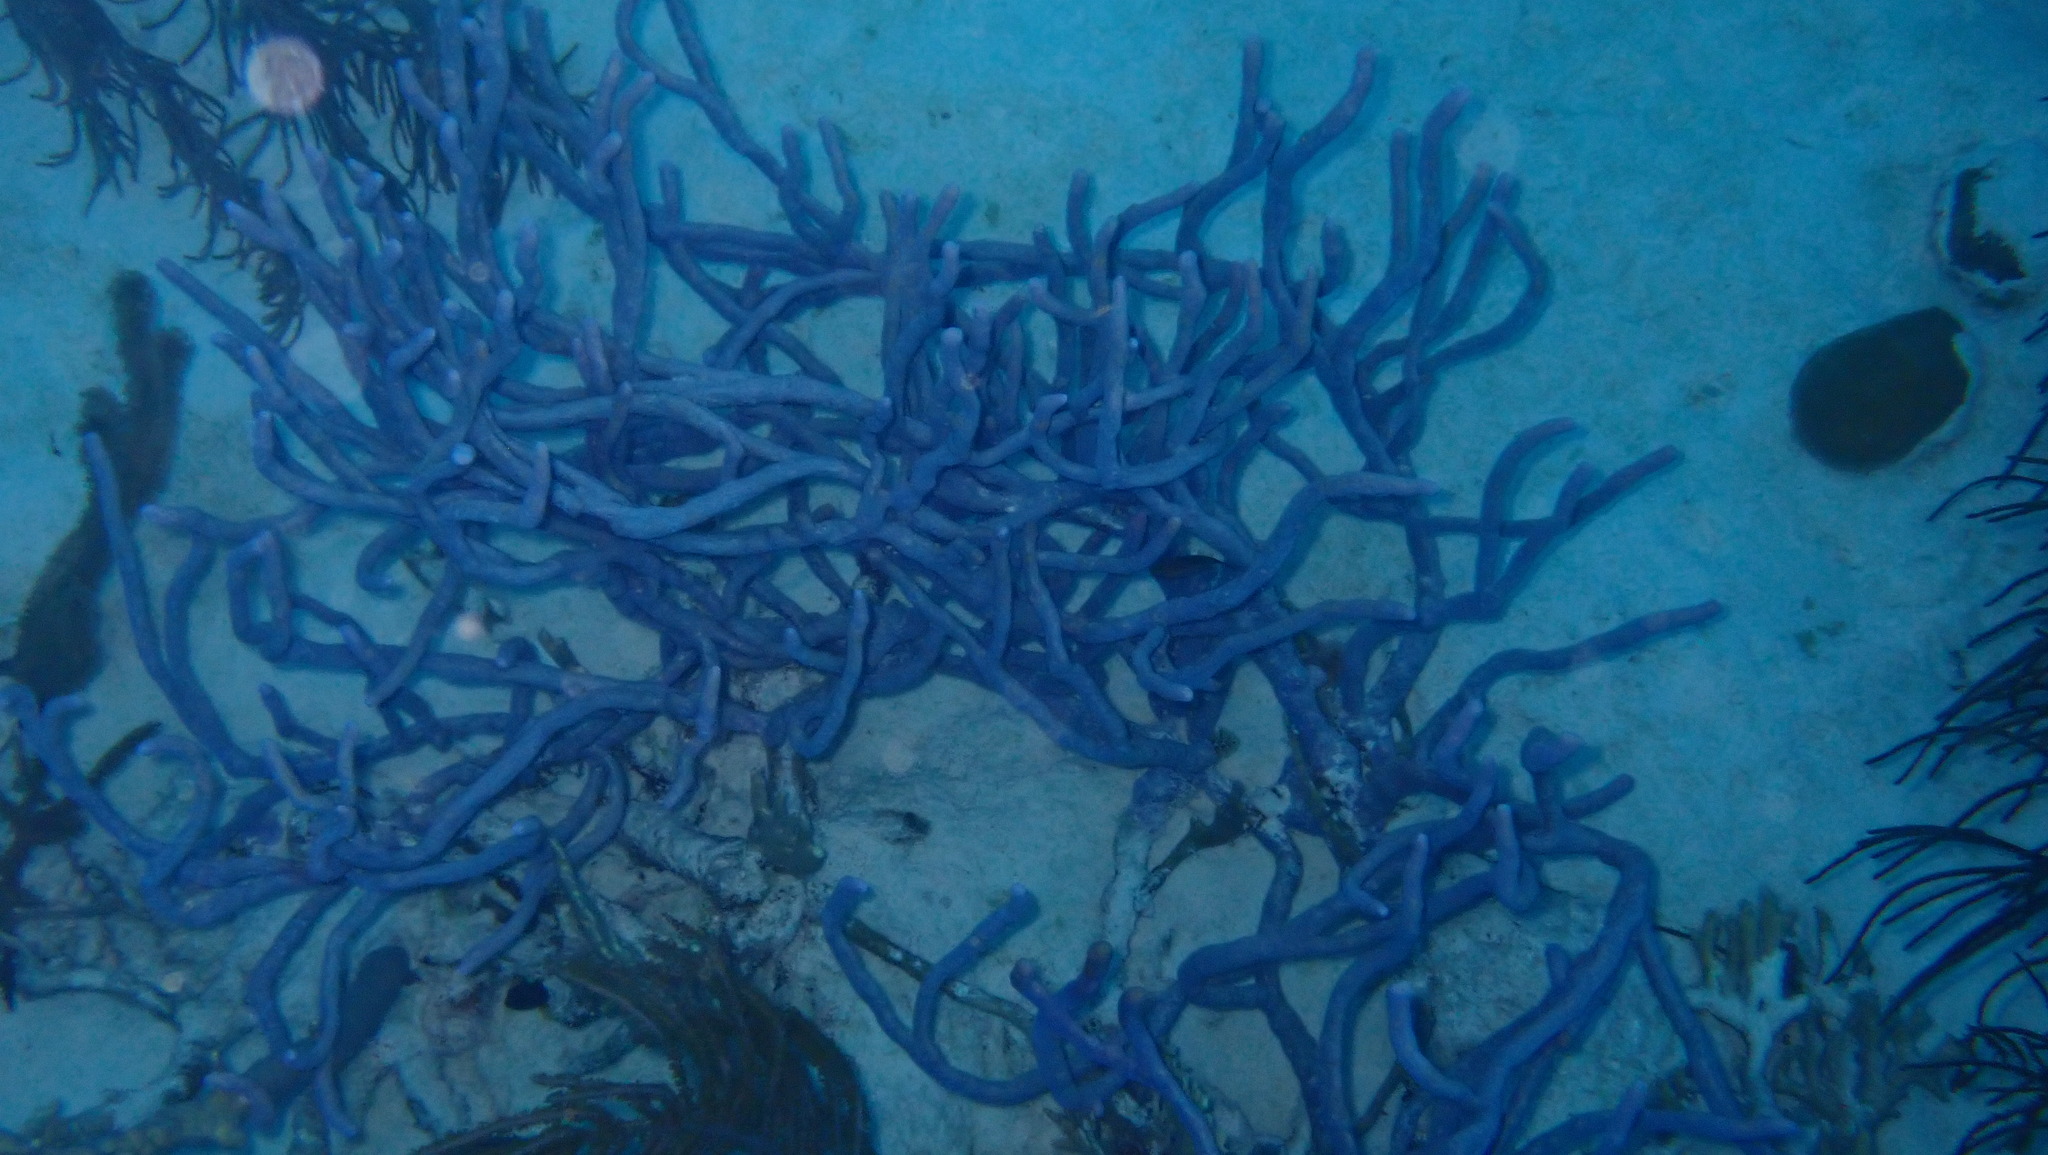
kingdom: Animalia
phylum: Porifera
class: Demospongiae
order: Verongiida
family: Aplysinidae
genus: Aplysina
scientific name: Aplysina cauliformis
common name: Branching candle sponge
